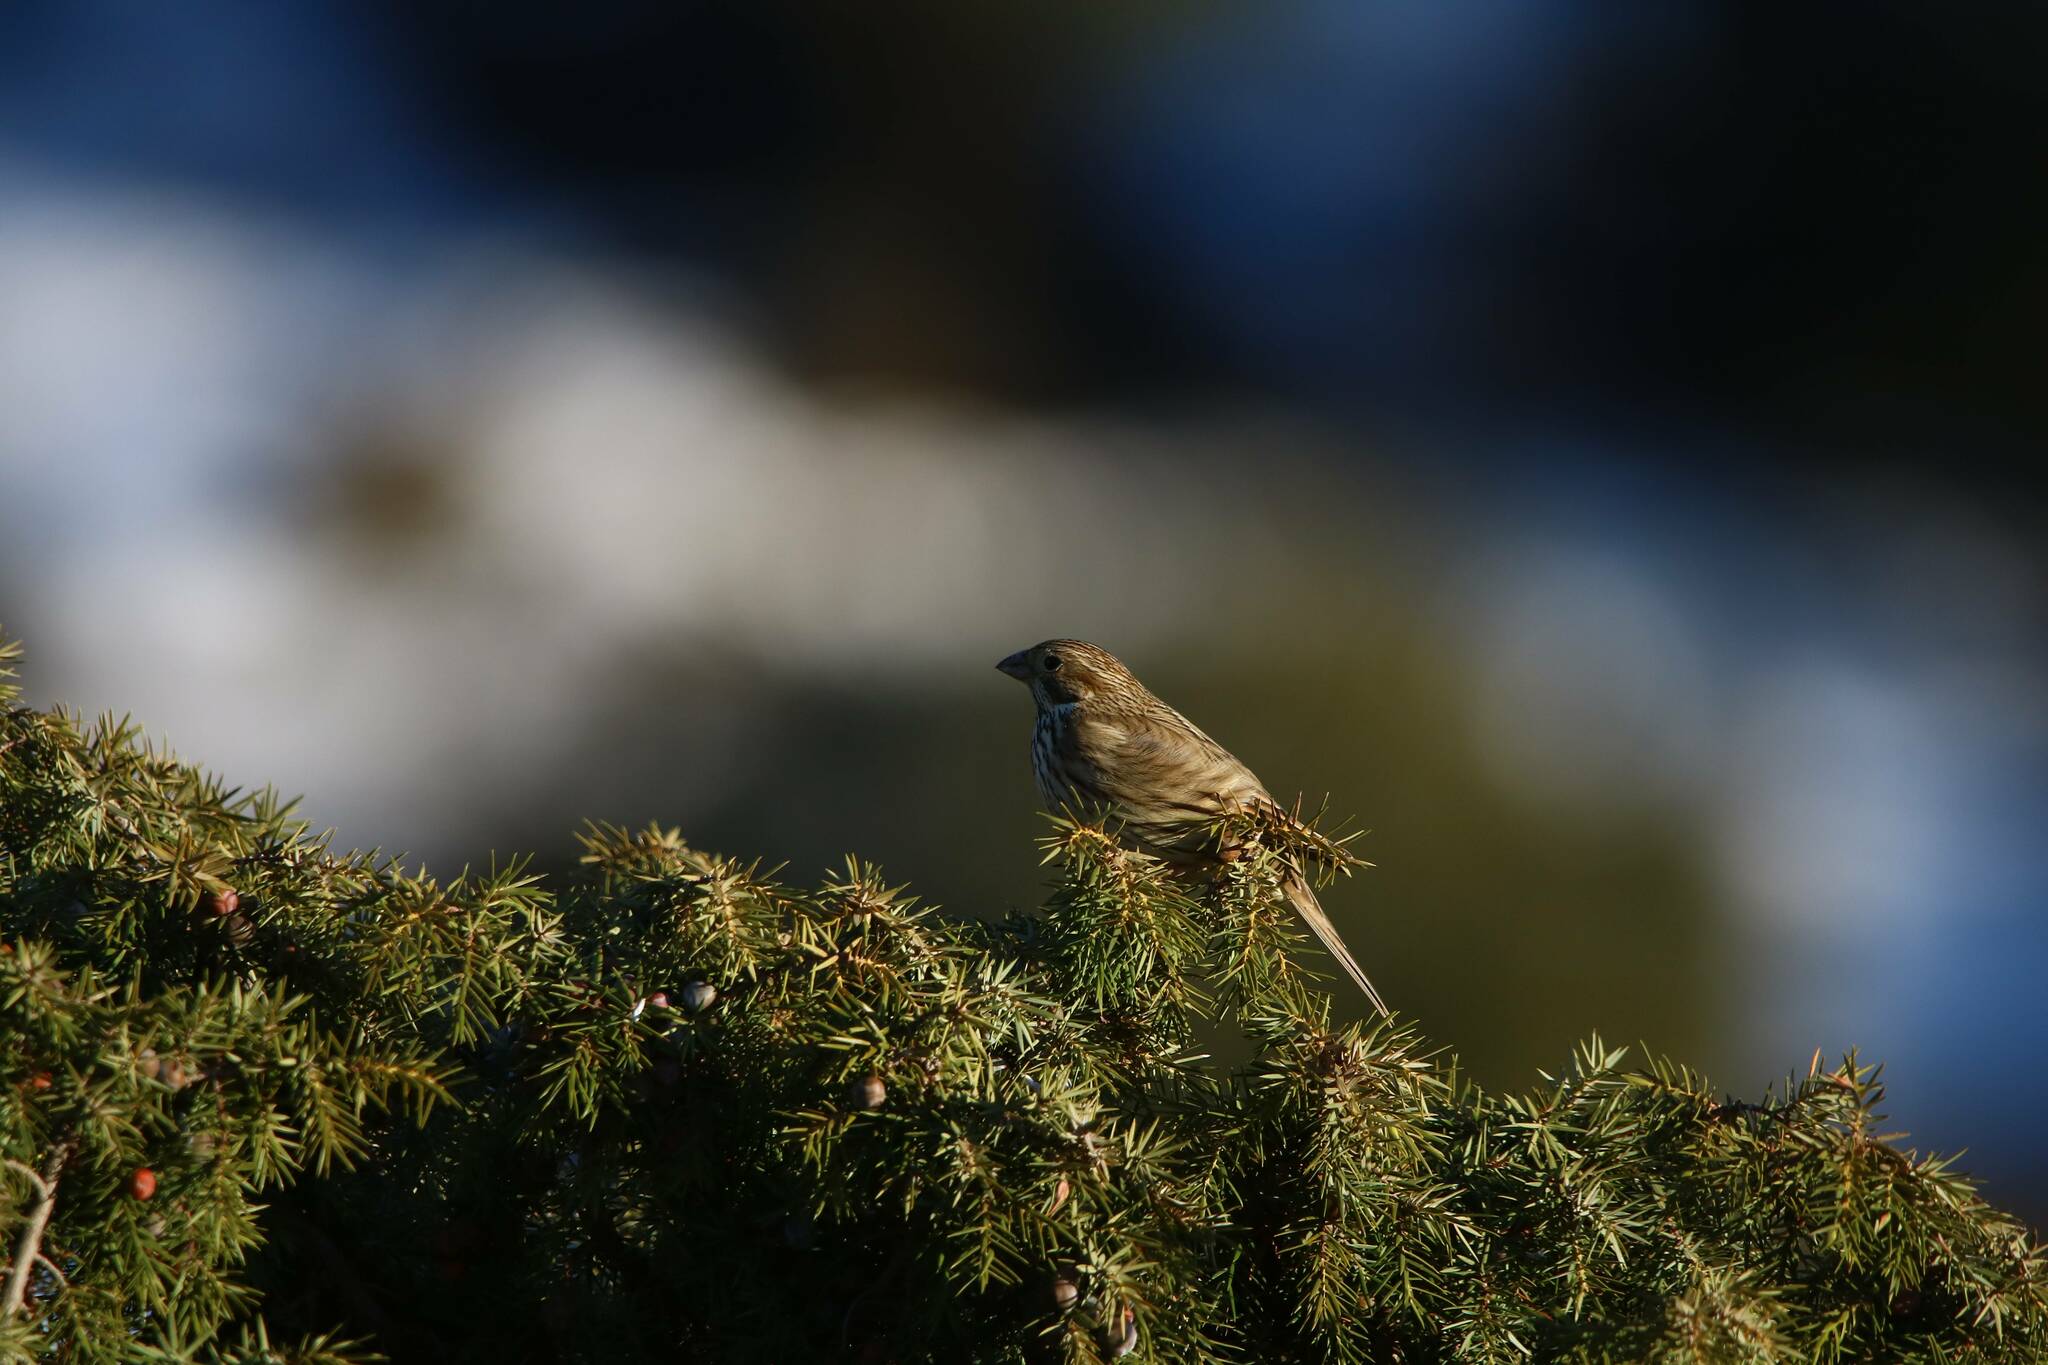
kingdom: Animalia
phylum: Chordata
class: Aves
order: Passeriformes
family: Emberizidae
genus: Emberiza
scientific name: Emberiza calandra
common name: Corn bunting
